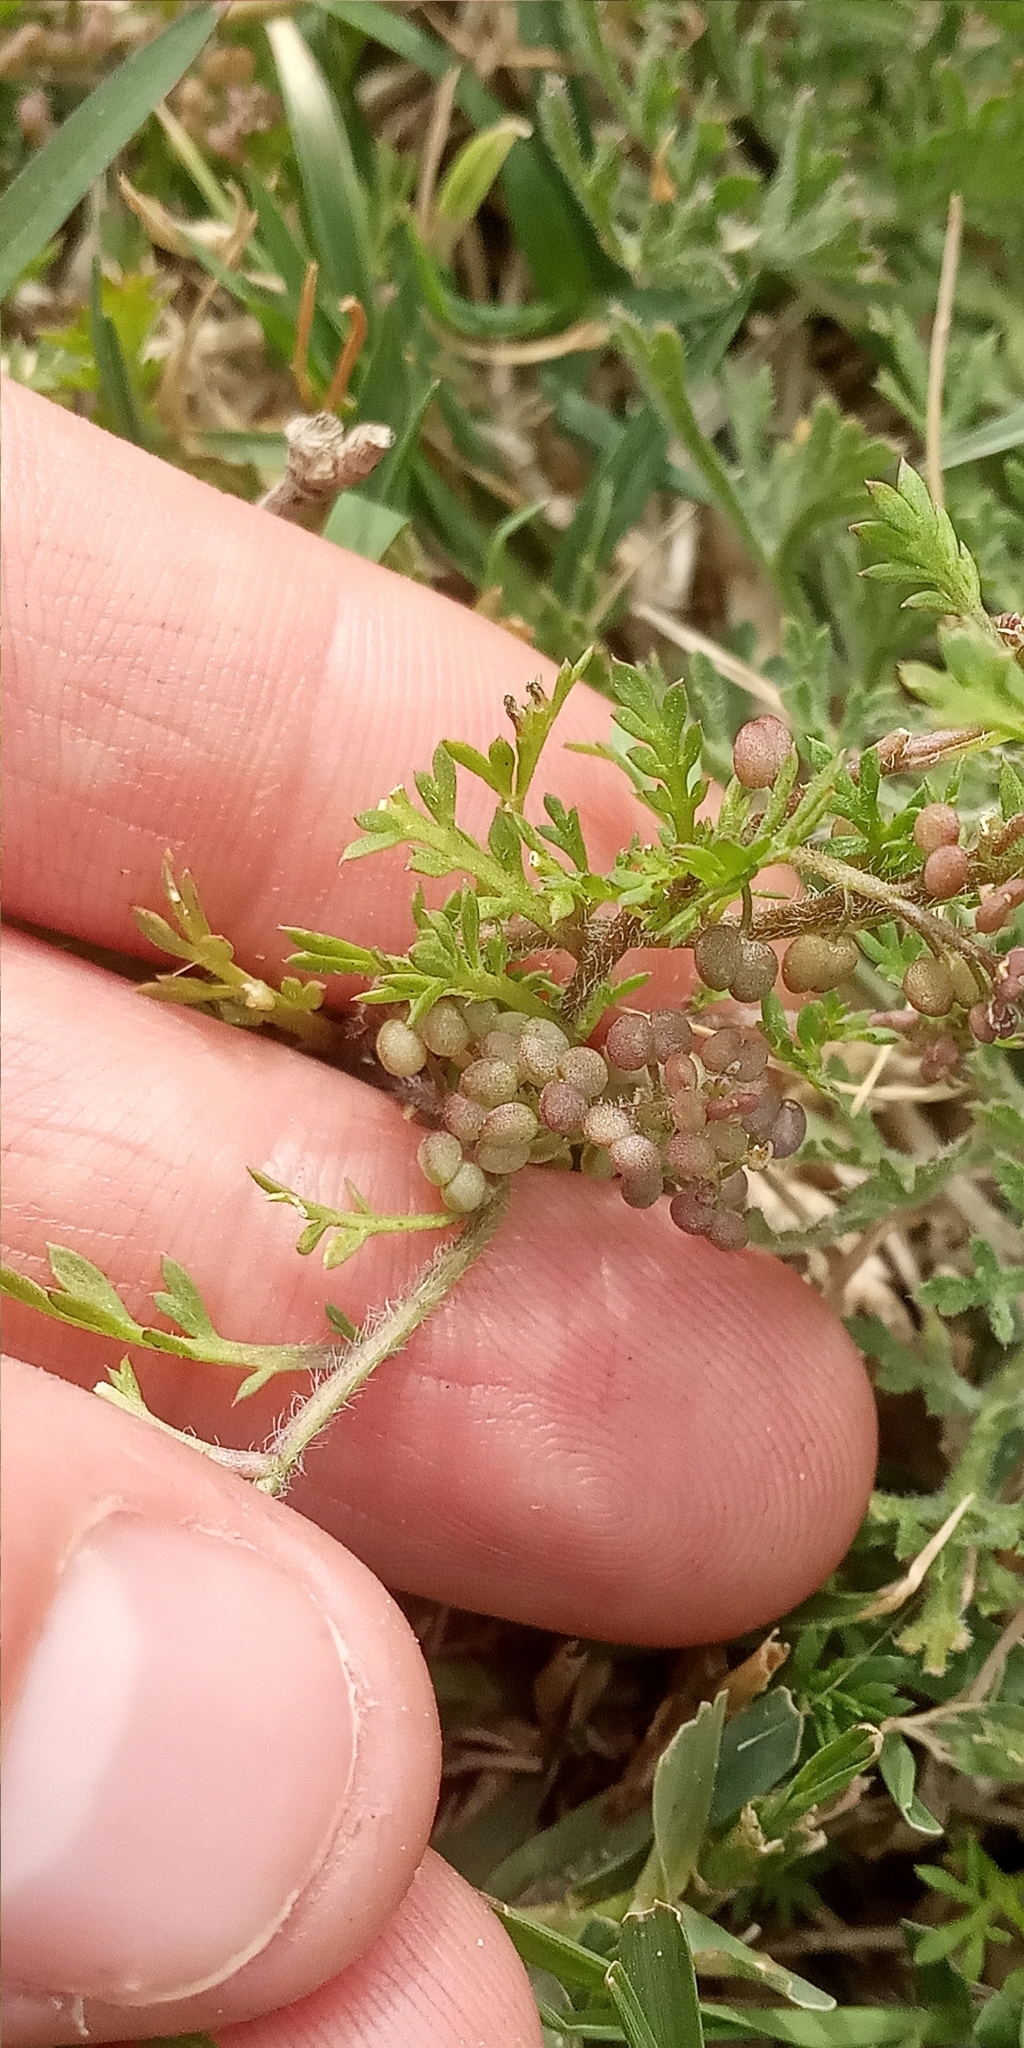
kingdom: Plantae
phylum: Tracheophyta
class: Magnoliopsida
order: Brassicales
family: Brassicaceae
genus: Lepidium
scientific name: Lepidium didymum
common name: Lesser swinecress
